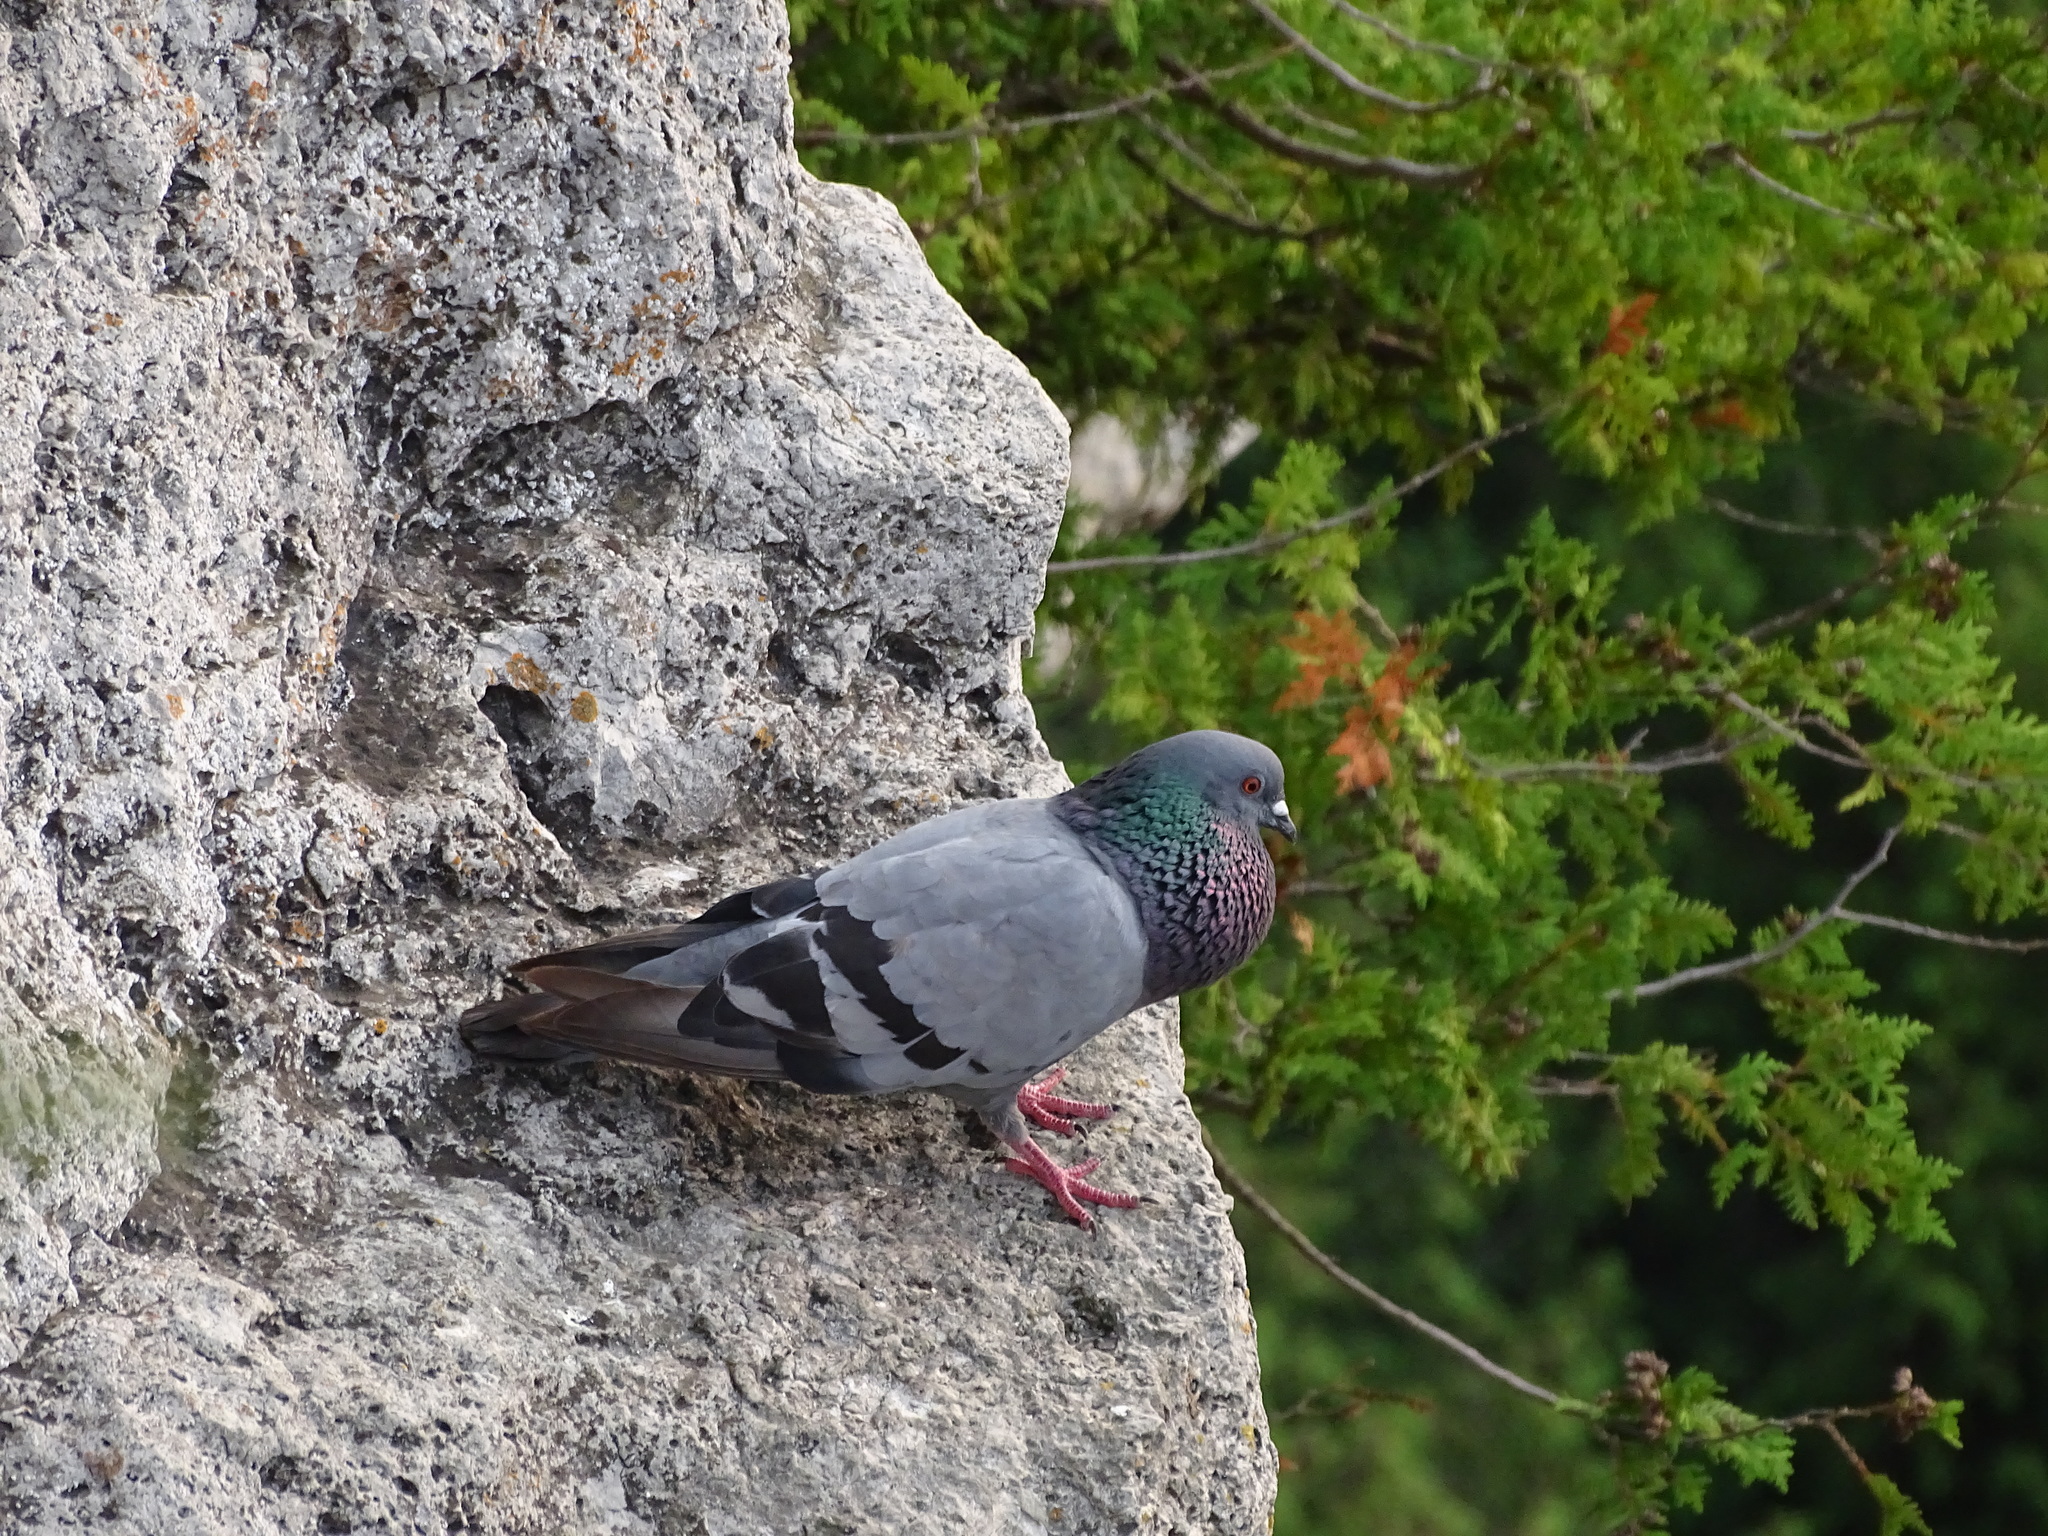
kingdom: Animalia
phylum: Chordata
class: Aves
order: Columbiformes
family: Columbidae
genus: Columba
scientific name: Columba livia
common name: Rock pigeon
